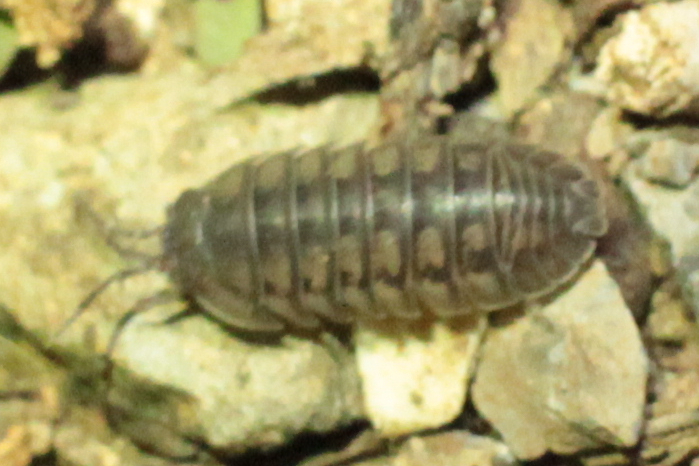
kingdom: Animalia
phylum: Arthropoda
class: Malacostraca
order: Isopoda
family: Armadillidiidae
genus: Armadillidium
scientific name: Armadillidium nasatum
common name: Isopod
